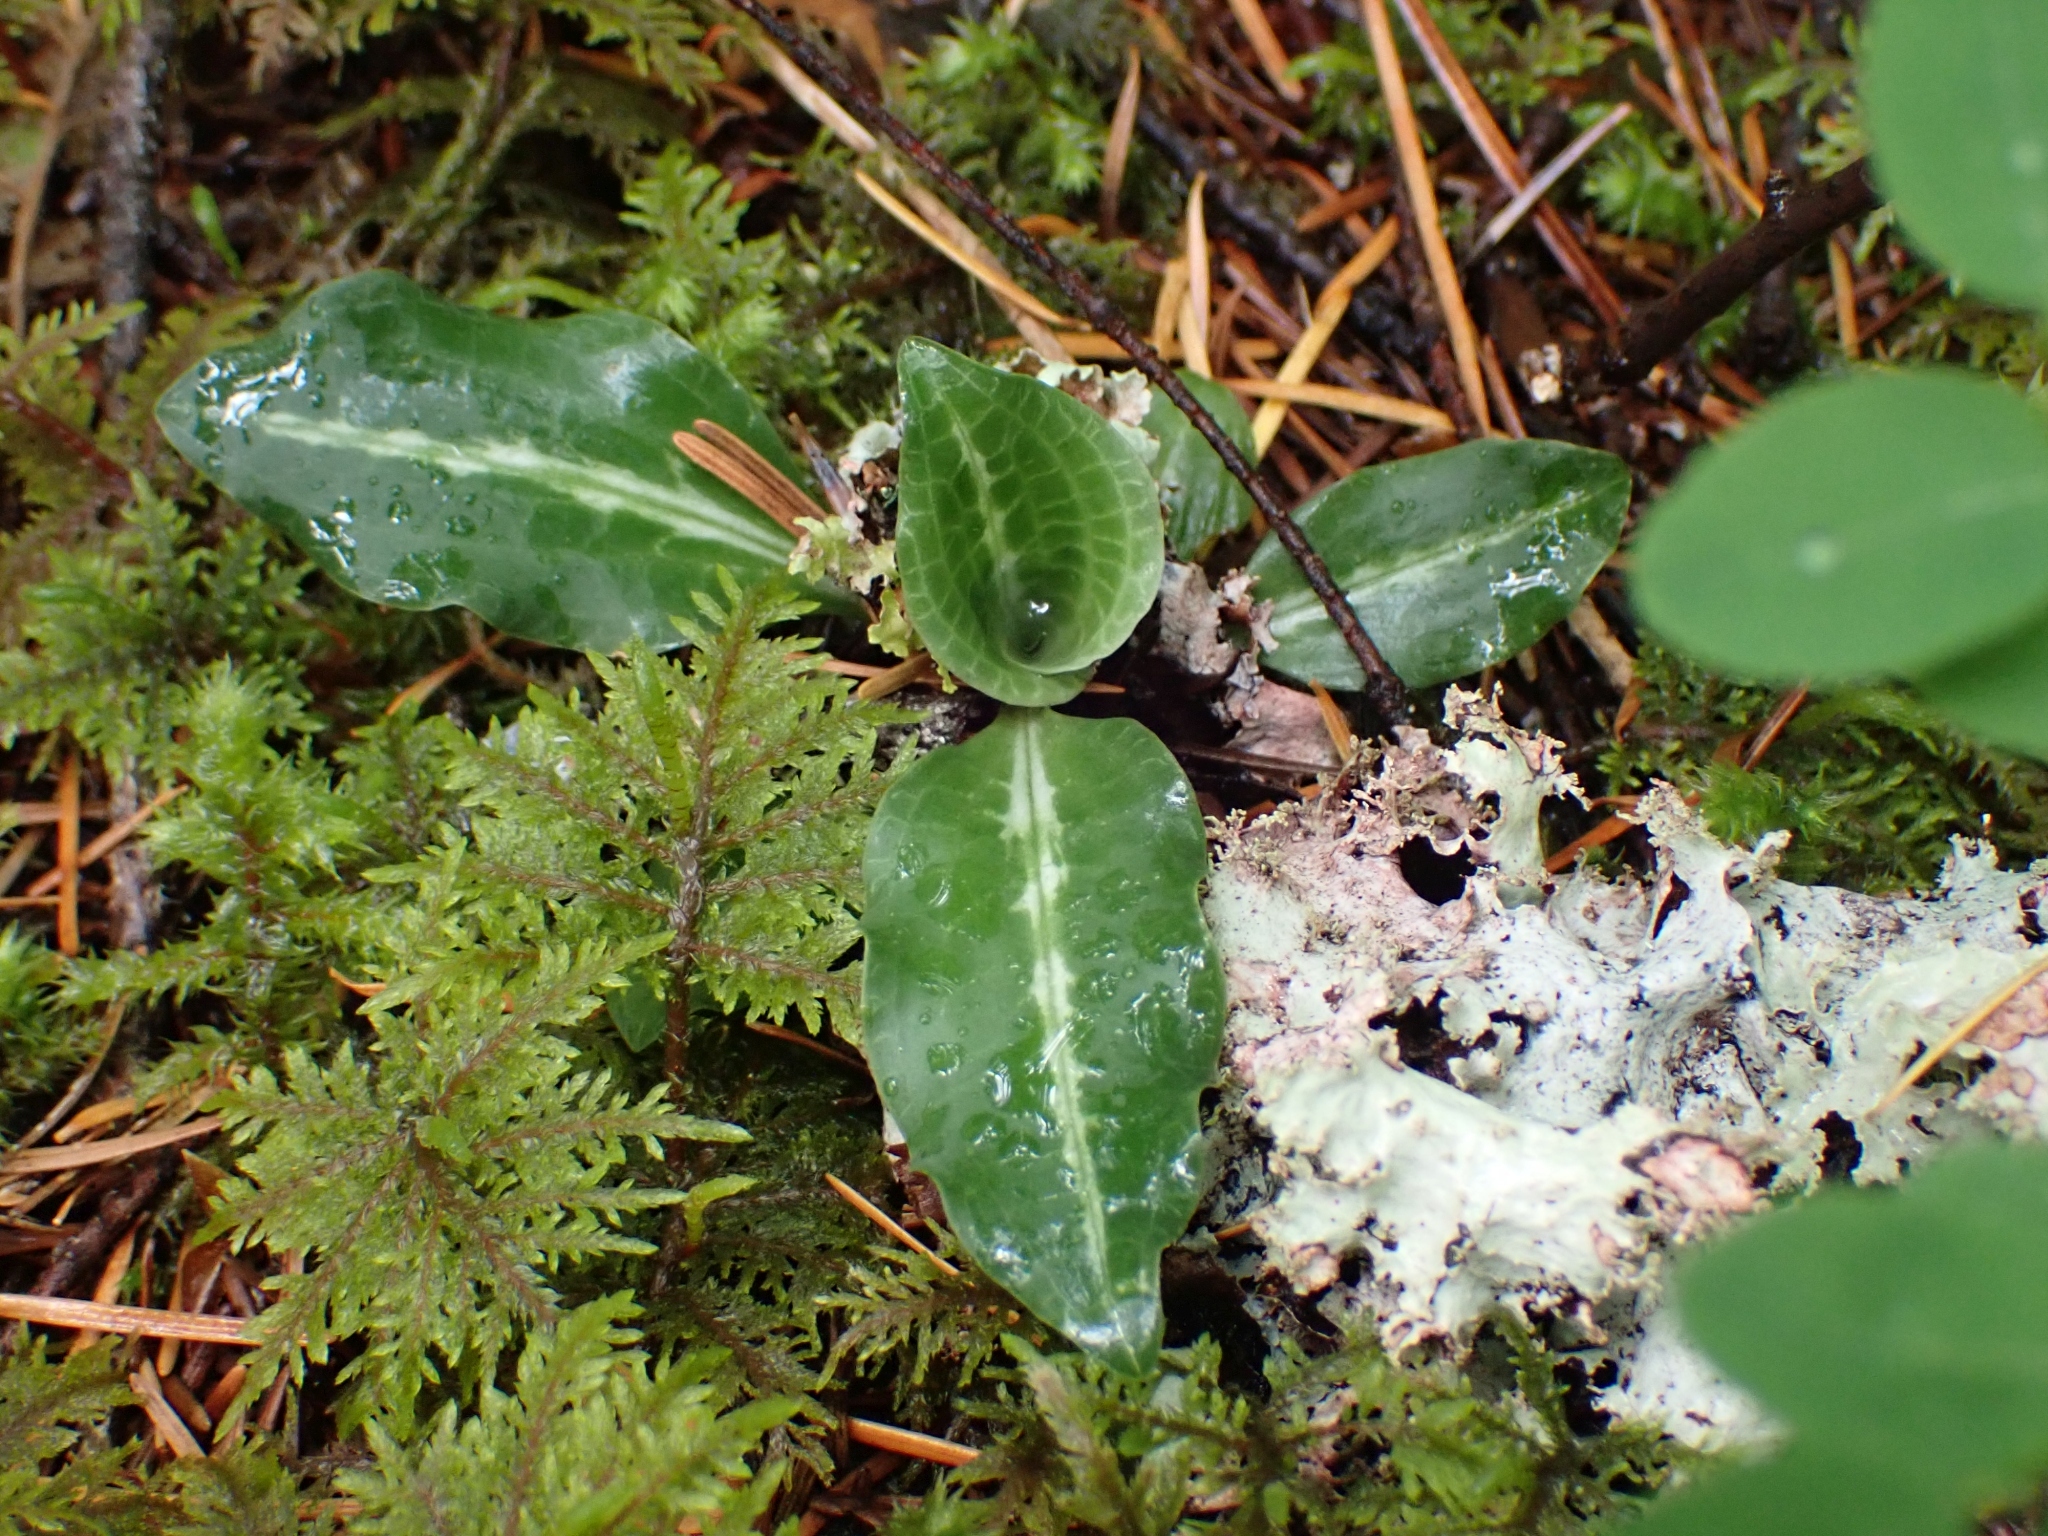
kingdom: Plantae
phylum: Tracheophyta
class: Liliopsida
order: Asparagales
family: Orchidaceae
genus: Goodyera
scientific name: Goodyera oblongifolia
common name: Giant rattlesnake-plantain
